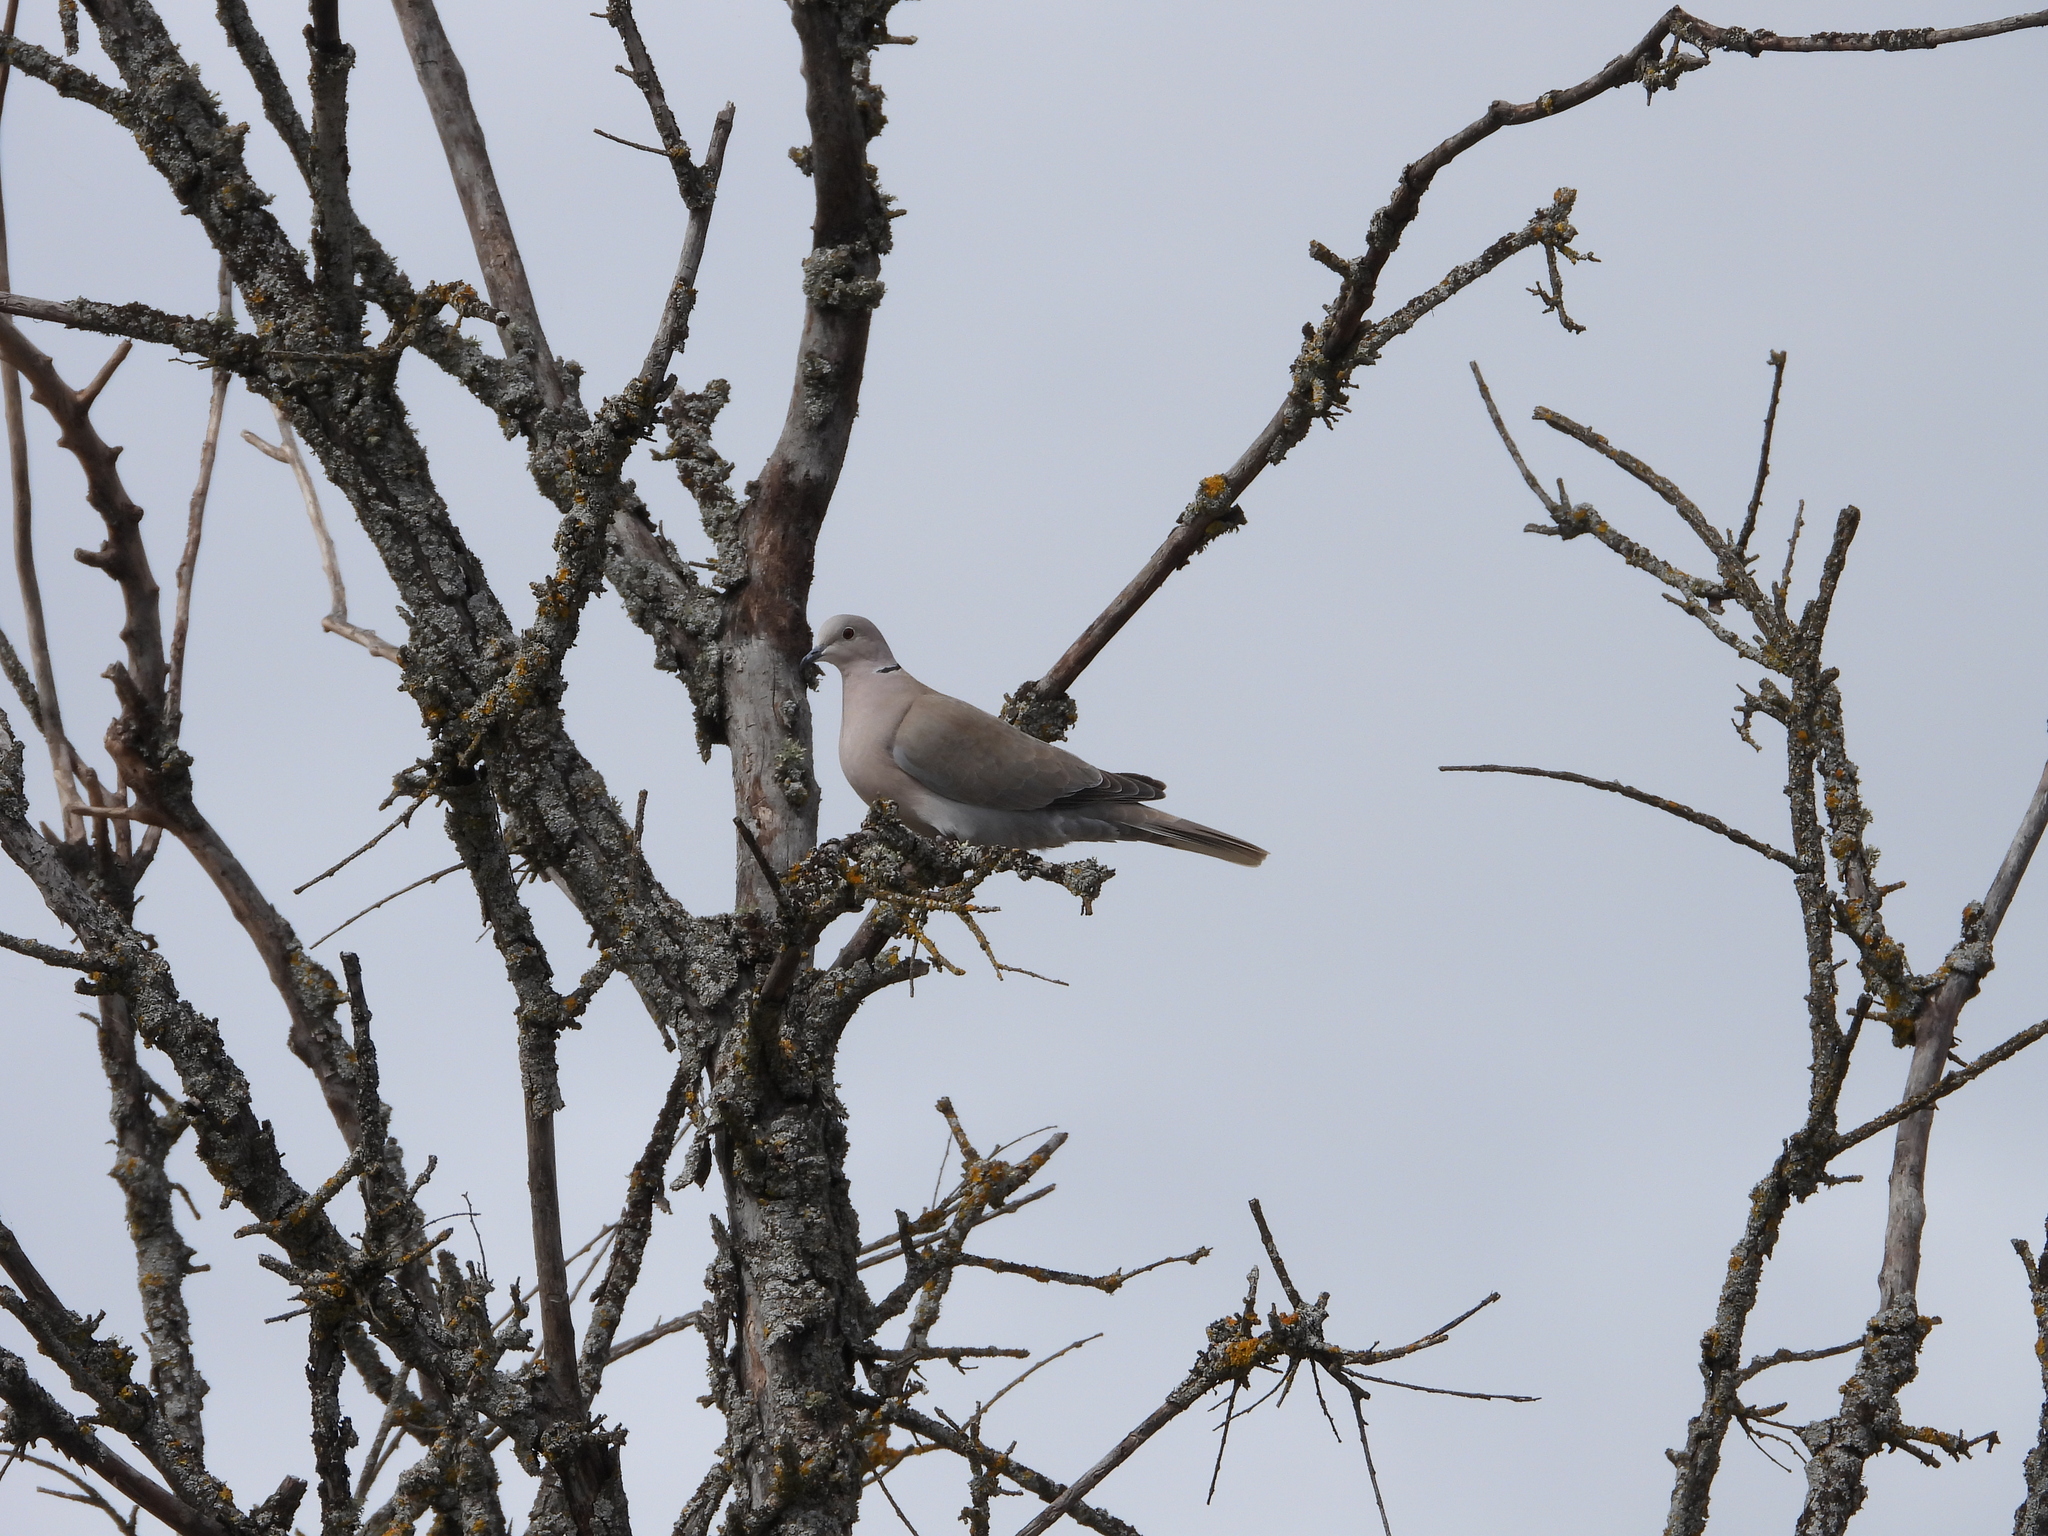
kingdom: Animalia
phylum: Chordata
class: Aves
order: Columbiformes
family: Columbidae
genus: Streptopelia
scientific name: Streptopelia decaocto
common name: Eurasian collared dove
